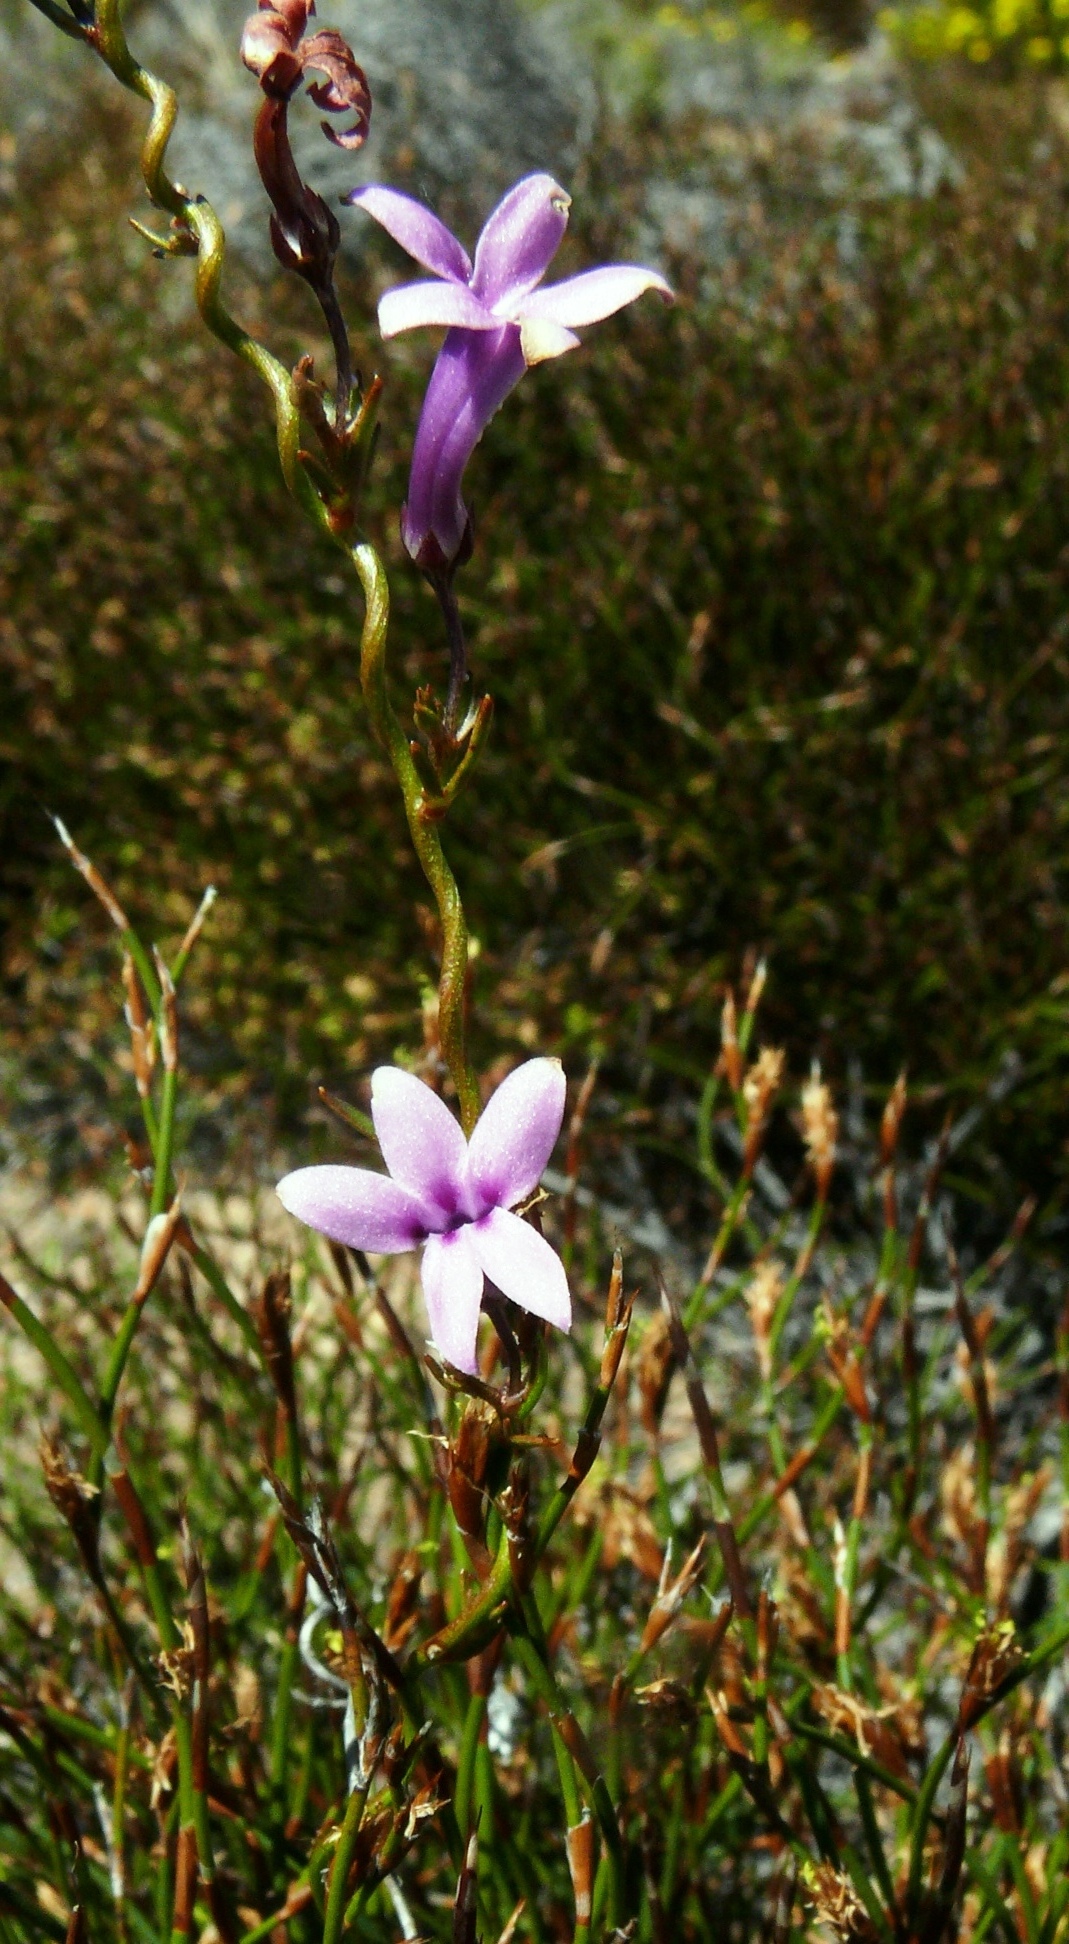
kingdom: Plantae
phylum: Tracheophyta
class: Magnoliopsida
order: Asterales
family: Campanulaceae
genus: Cyphia
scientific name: Cyphia volubilis
